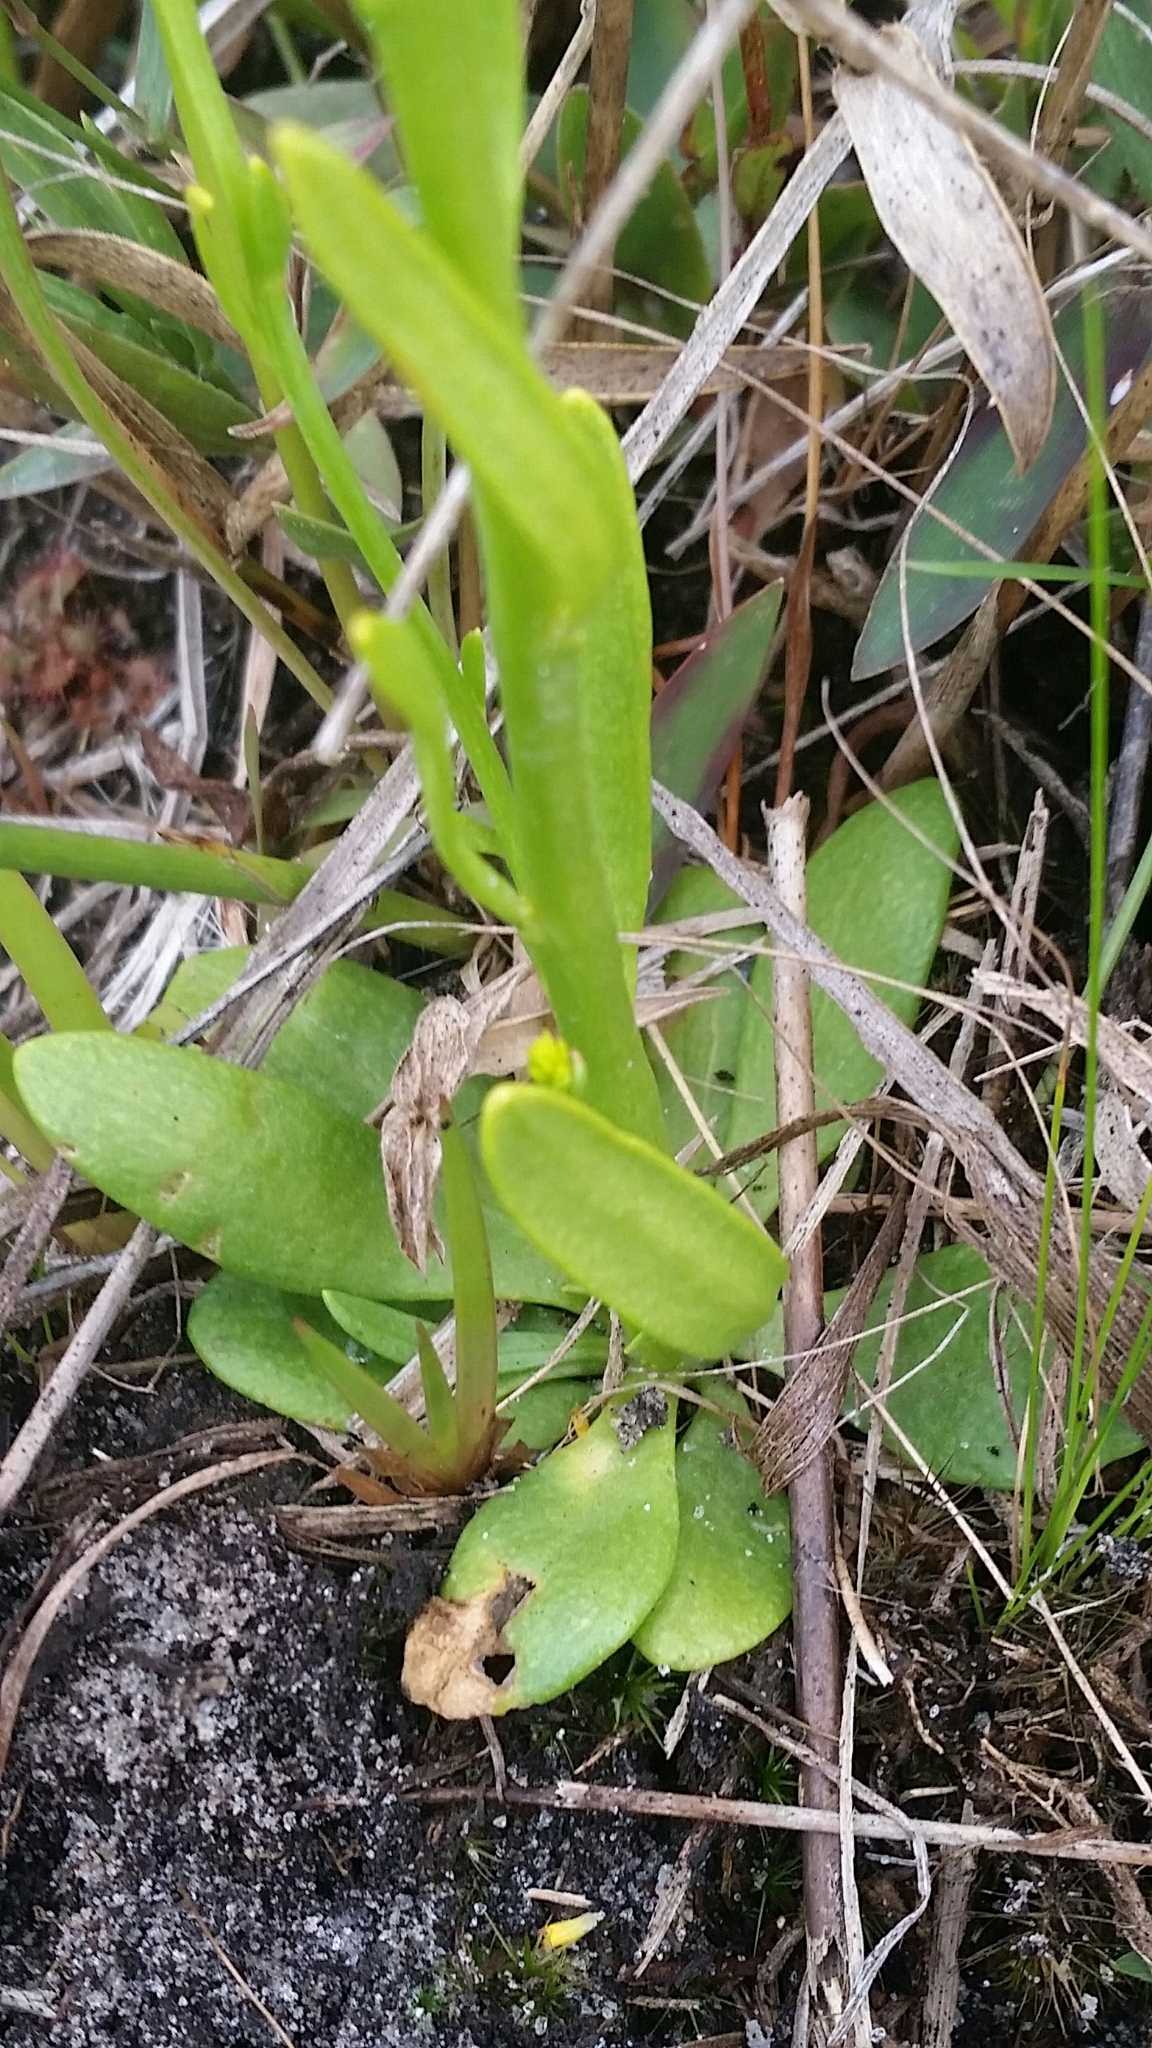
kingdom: Plantae
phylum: Tracheophyta
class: Magnoliopsida
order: Fabales
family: Polygalaceae
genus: Polygala
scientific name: Polygala ramosa
